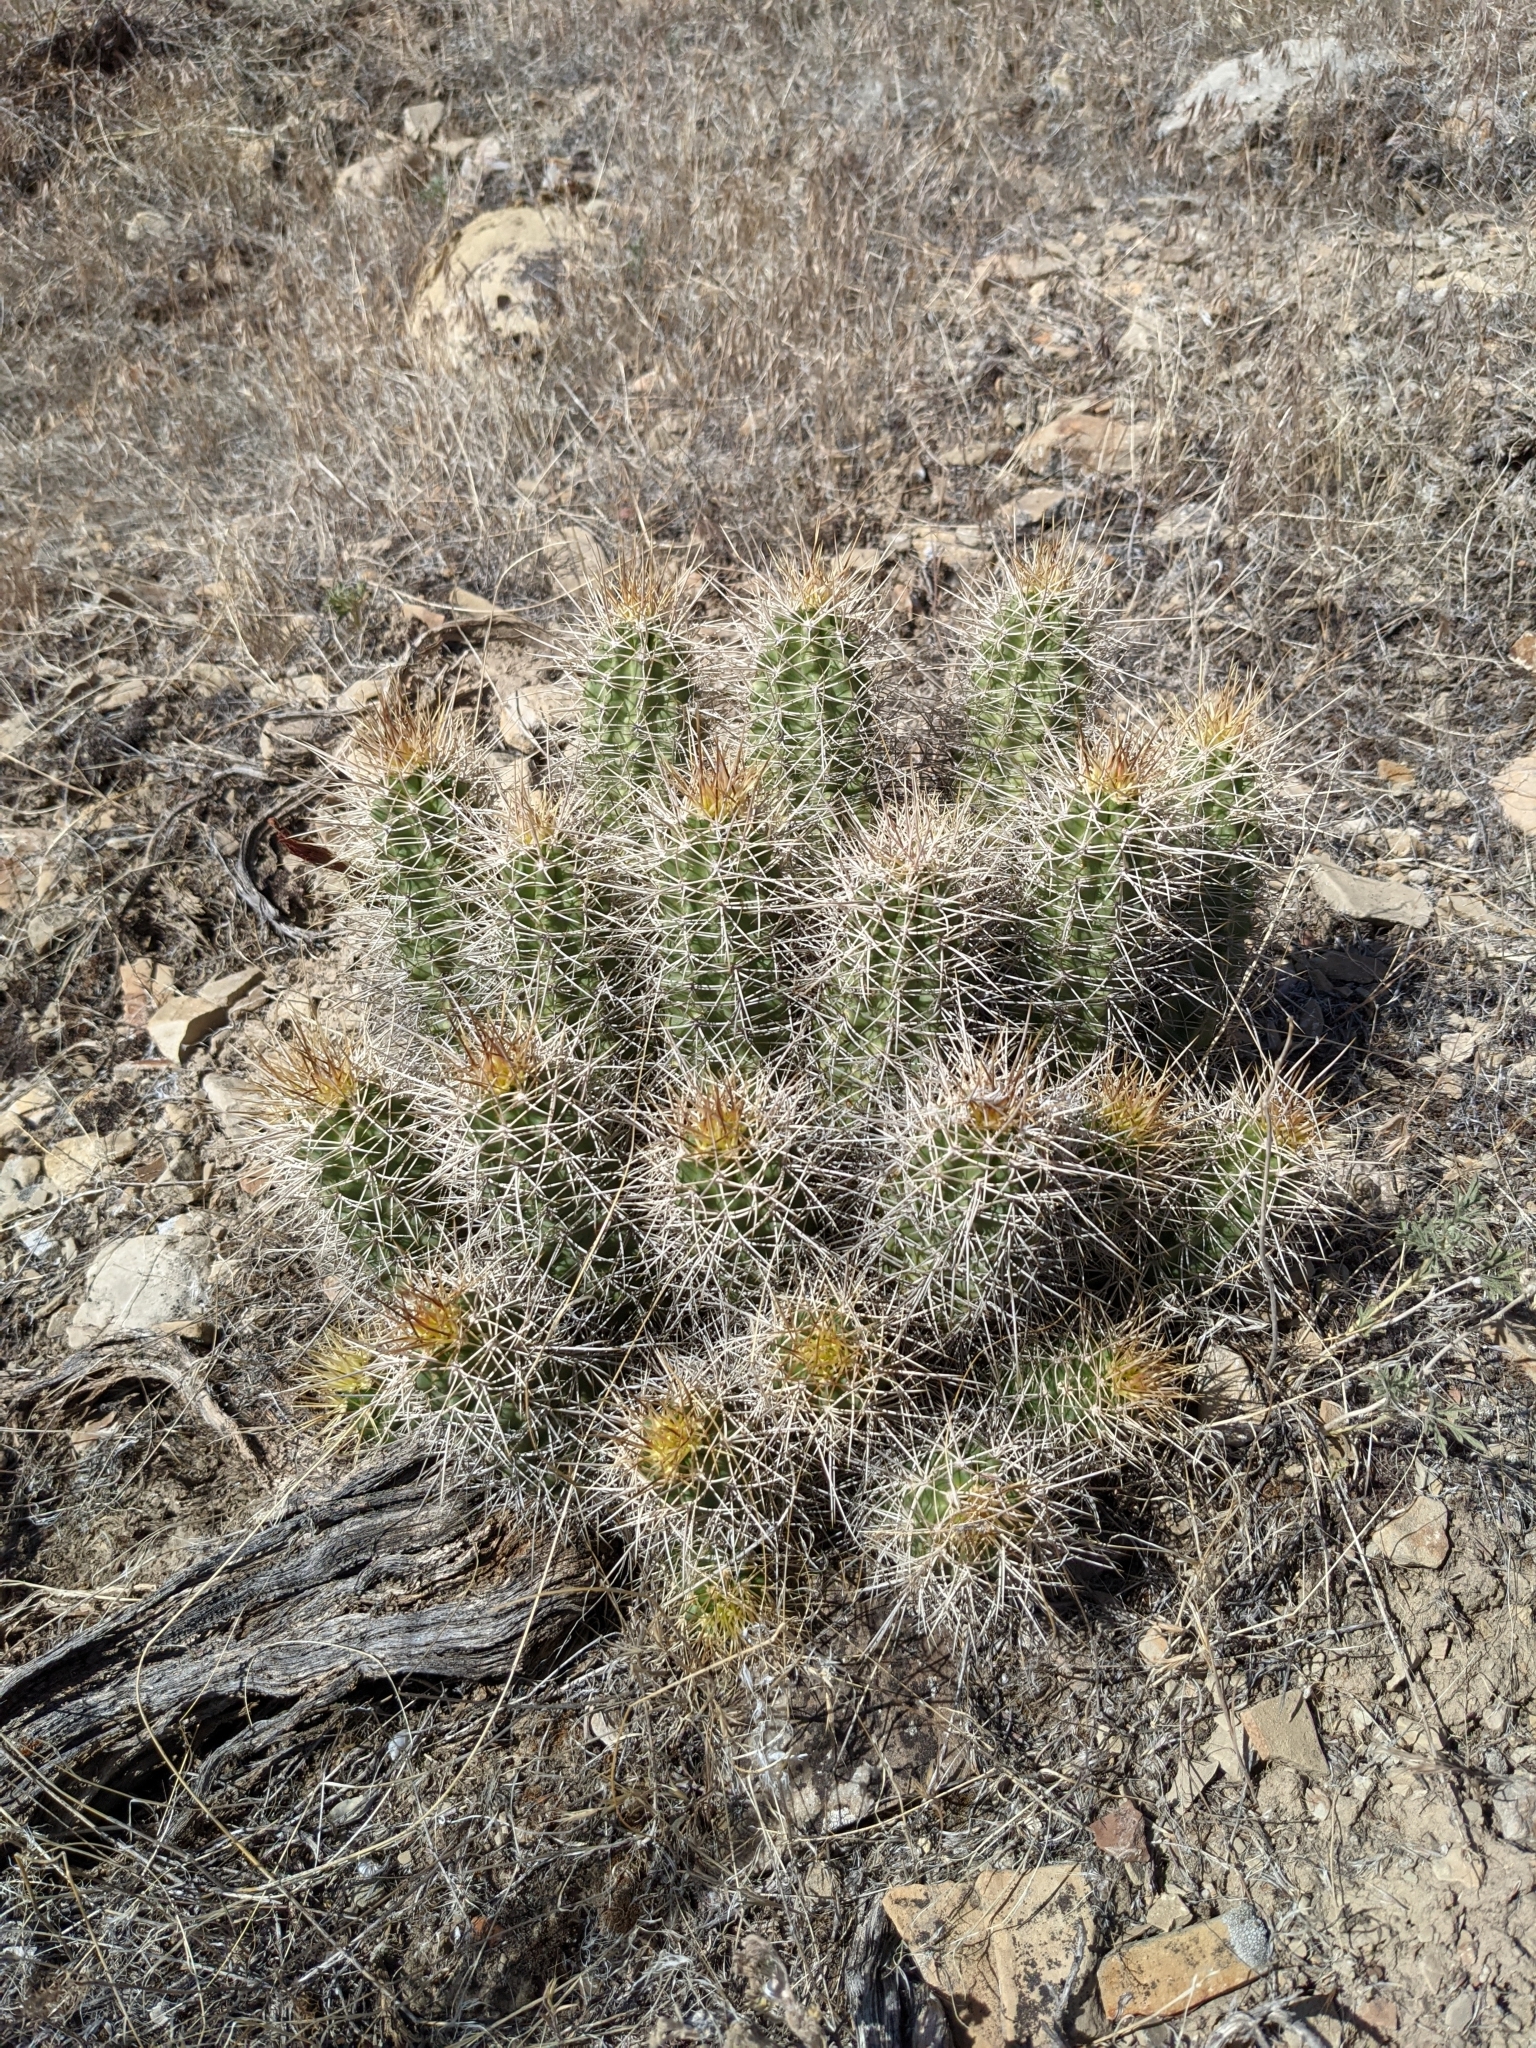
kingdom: Plantae
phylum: Tracheophyta
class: Magnoliopsida
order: Caryophyllales
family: Cactaceae
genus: Echinocereus
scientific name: Echinocereus triglochidiatus
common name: Claretcup hedgehog
